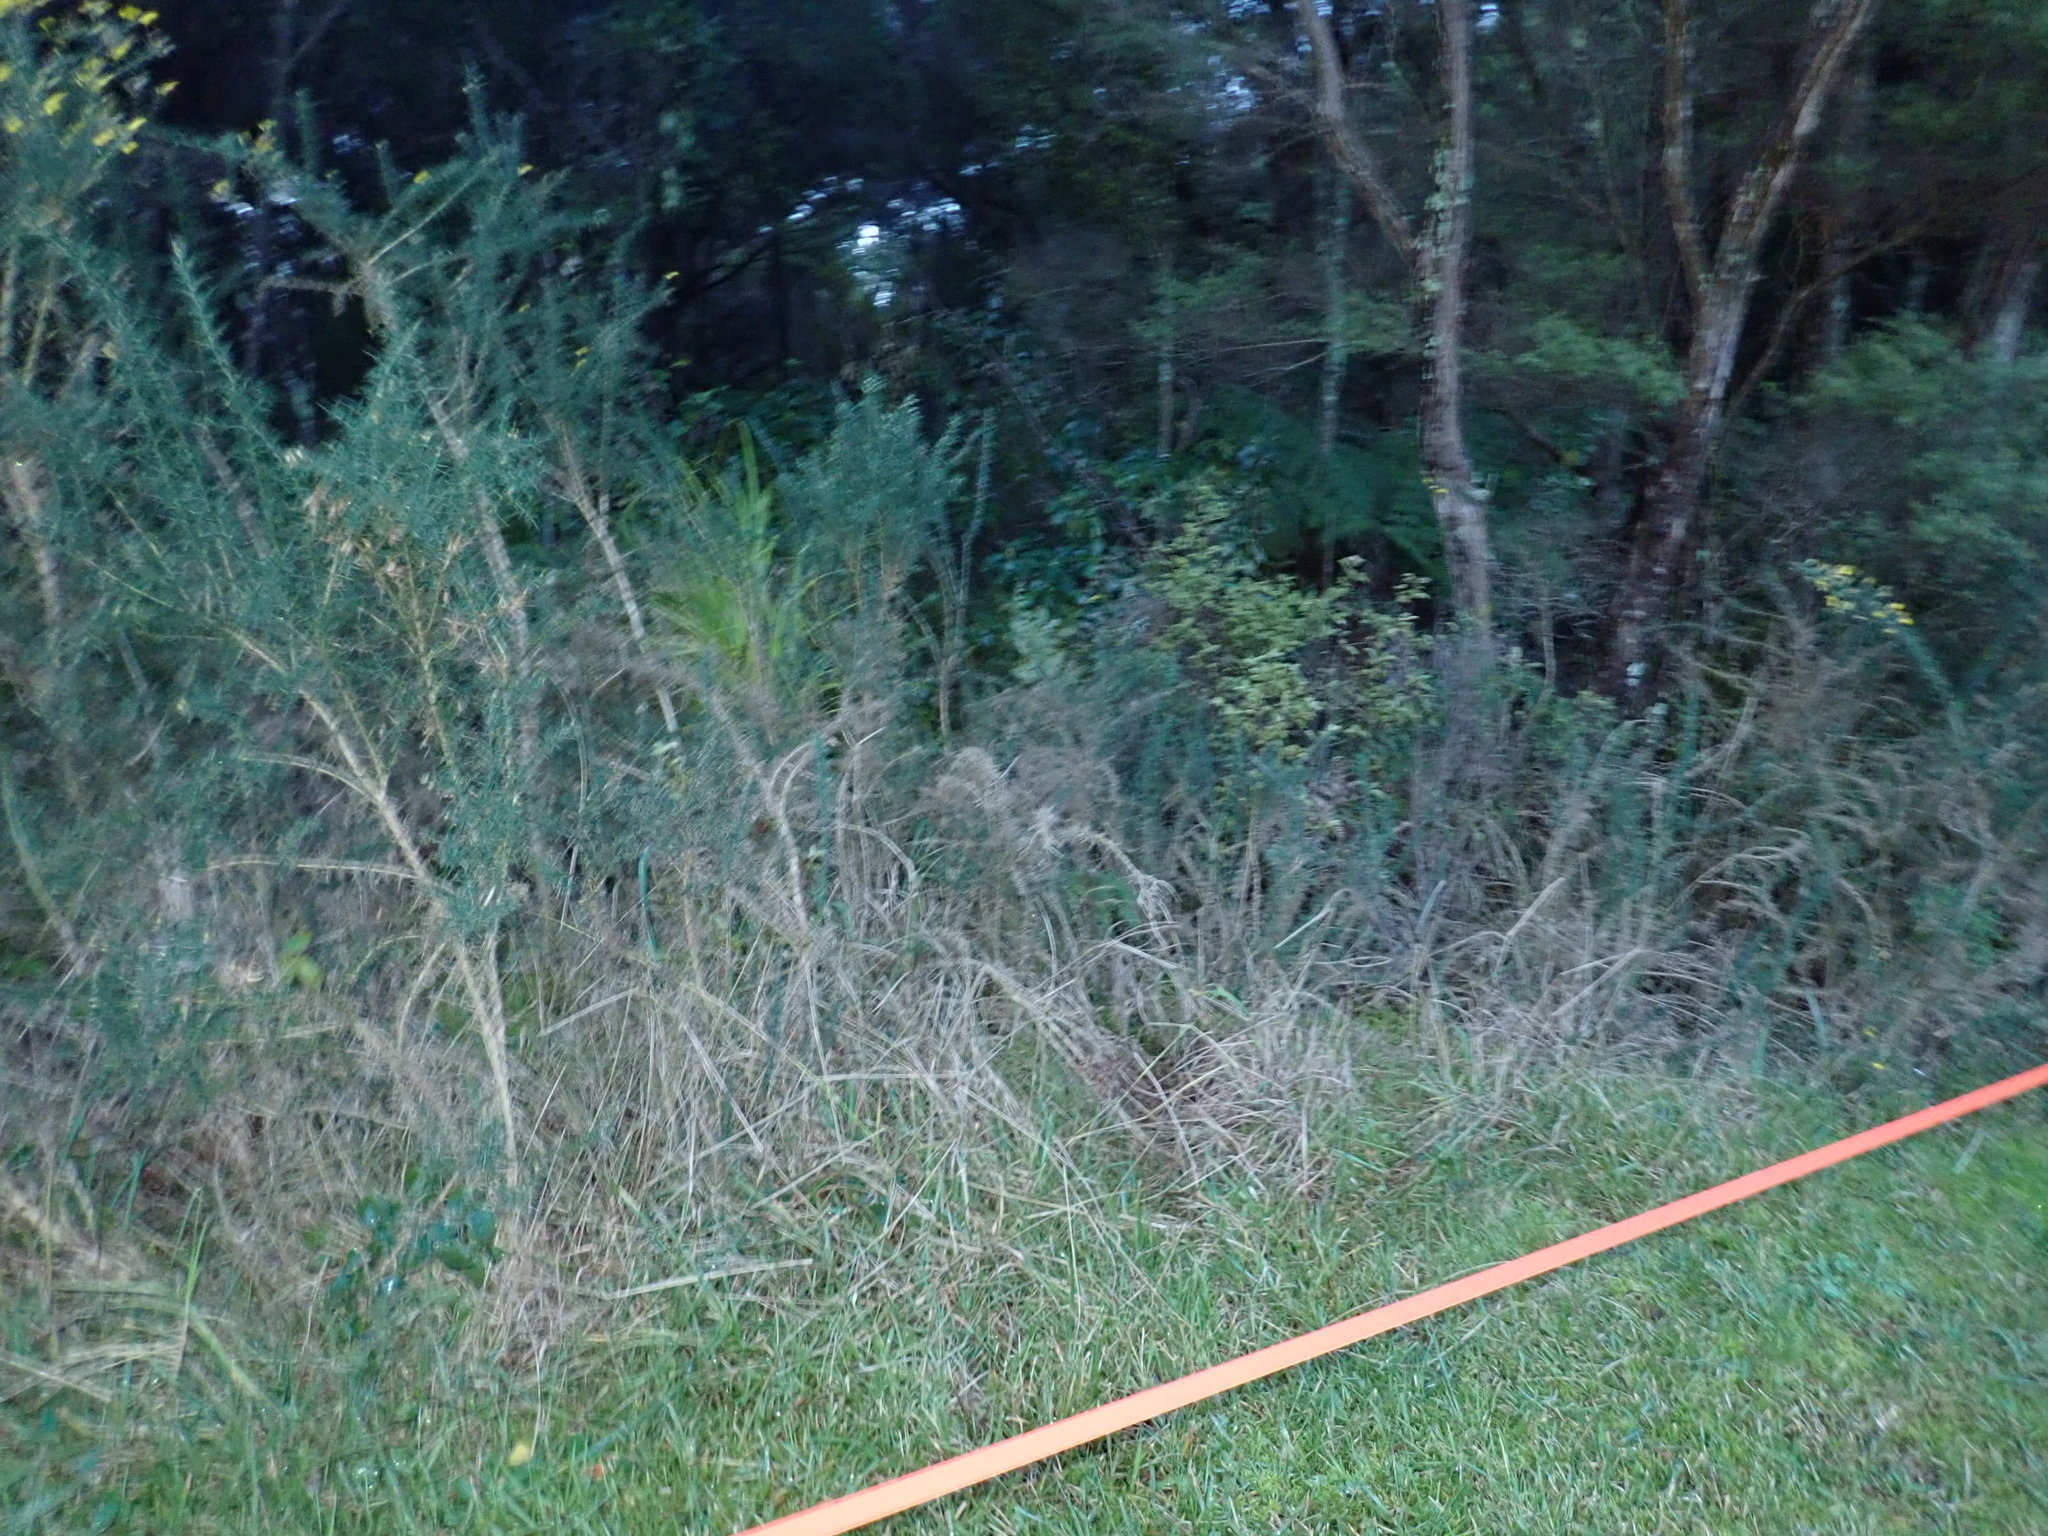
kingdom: Plantae
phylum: Tracheophyta
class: Magnoliopsida
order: Fabales
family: Fabaceae
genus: Ulex
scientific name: Ulex europaeus
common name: Common gorse
